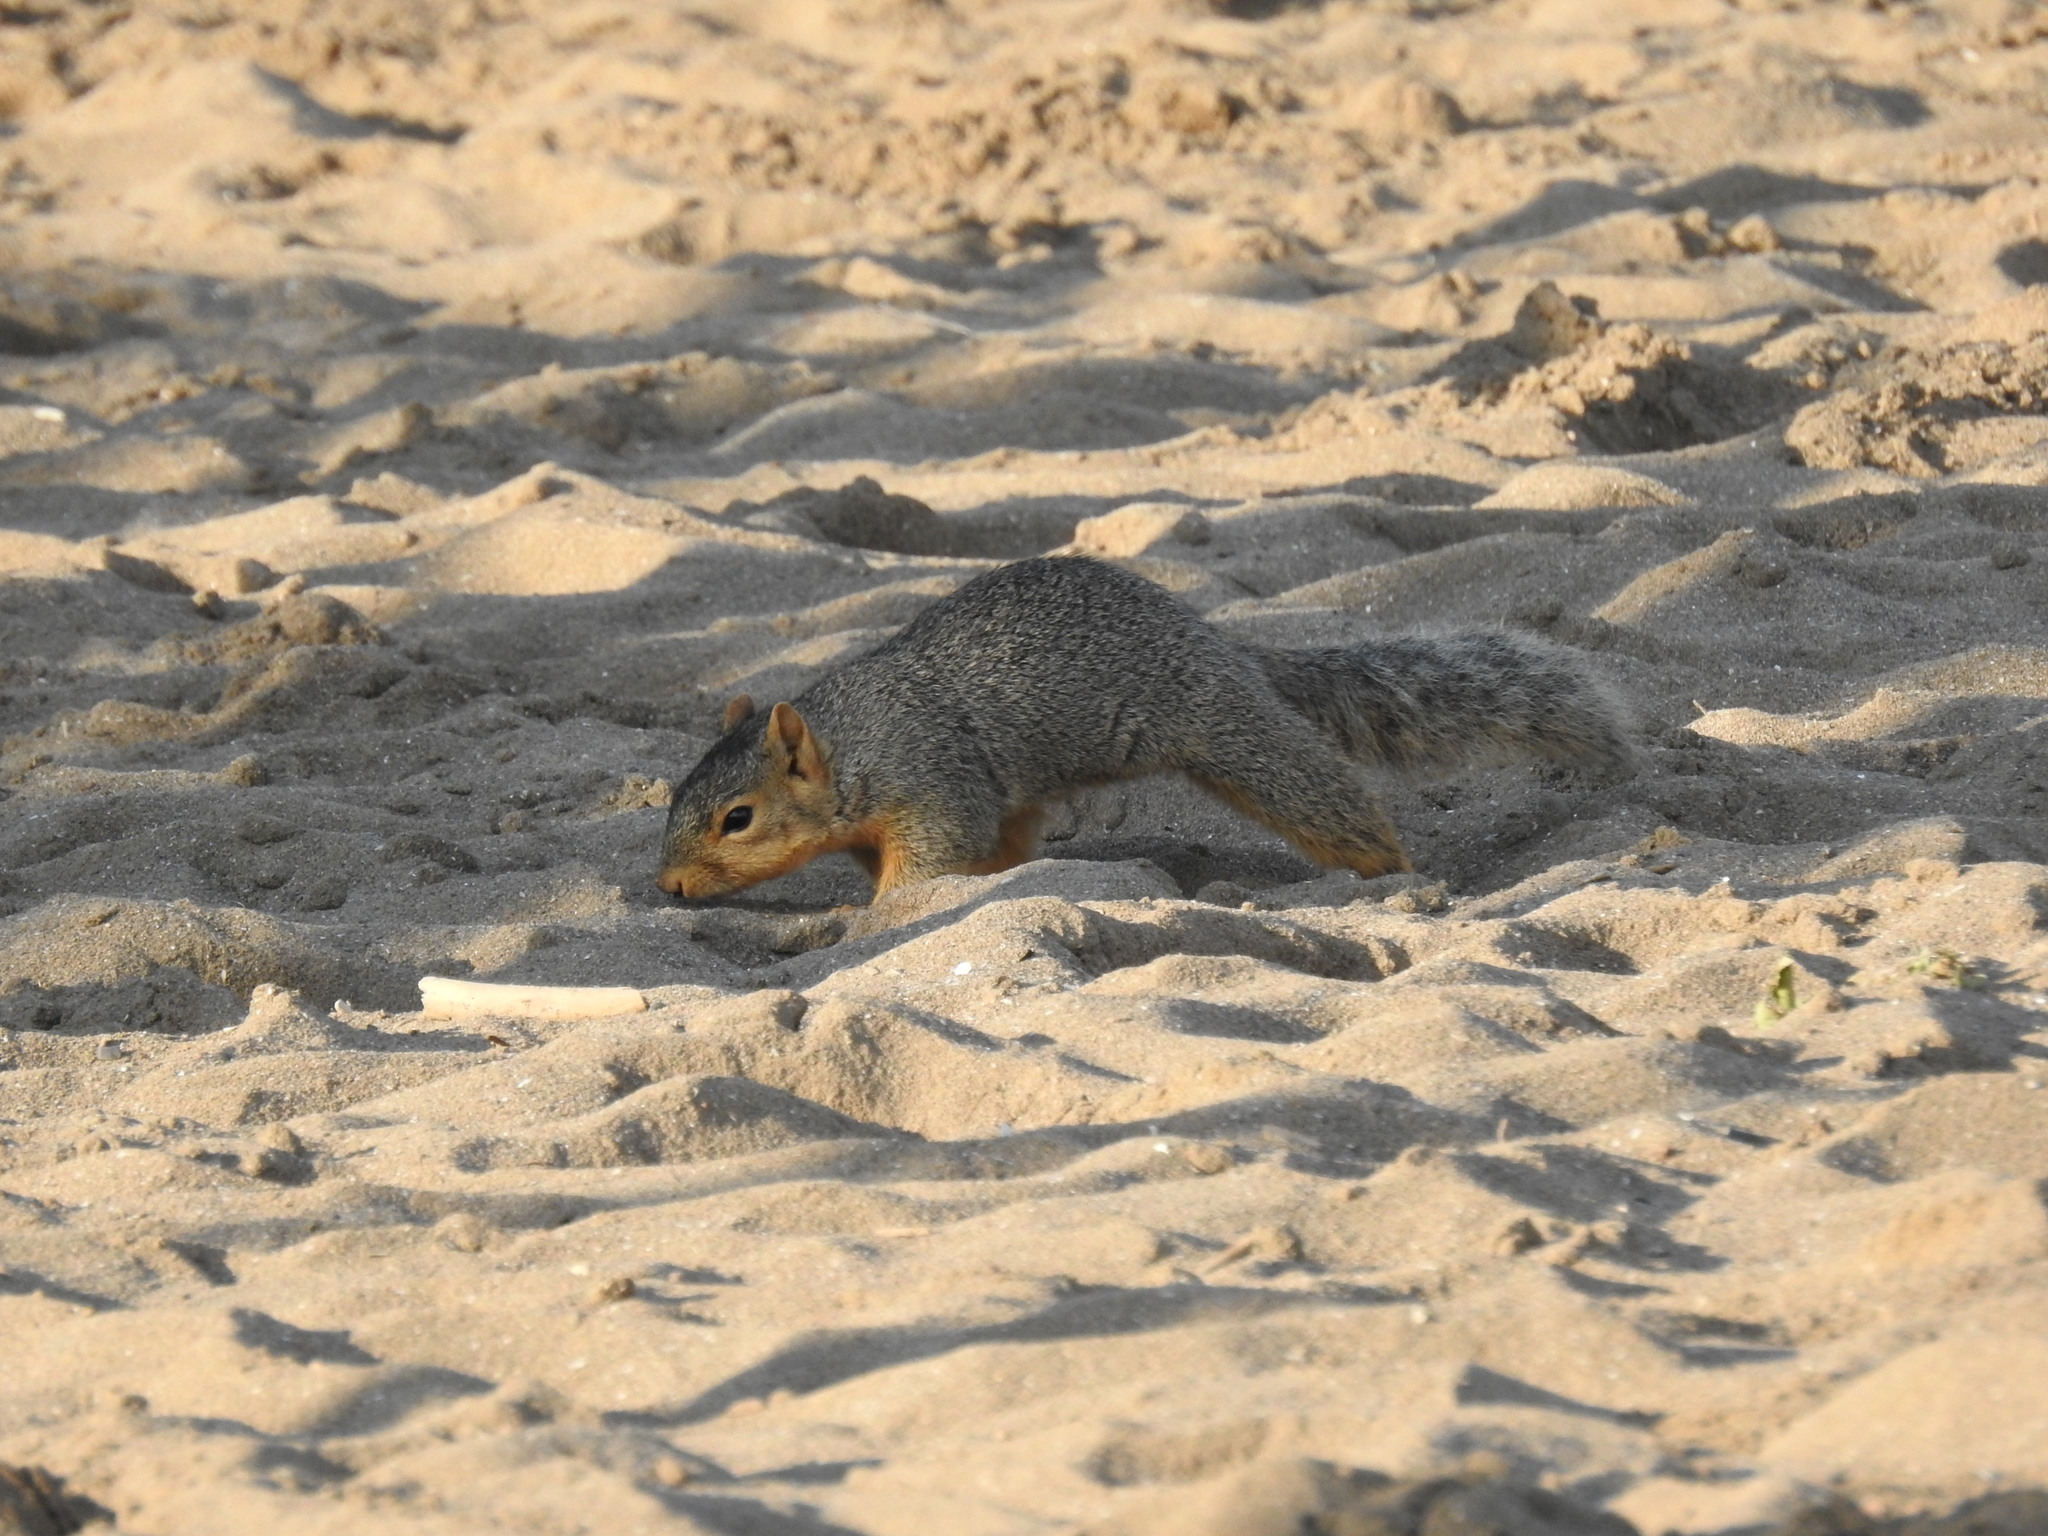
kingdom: Animalia
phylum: Chordata
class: Mammalia
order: Rodentia
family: Sciuridae
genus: Sciurus
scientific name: Sciurus niger
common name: Fox squirrel
